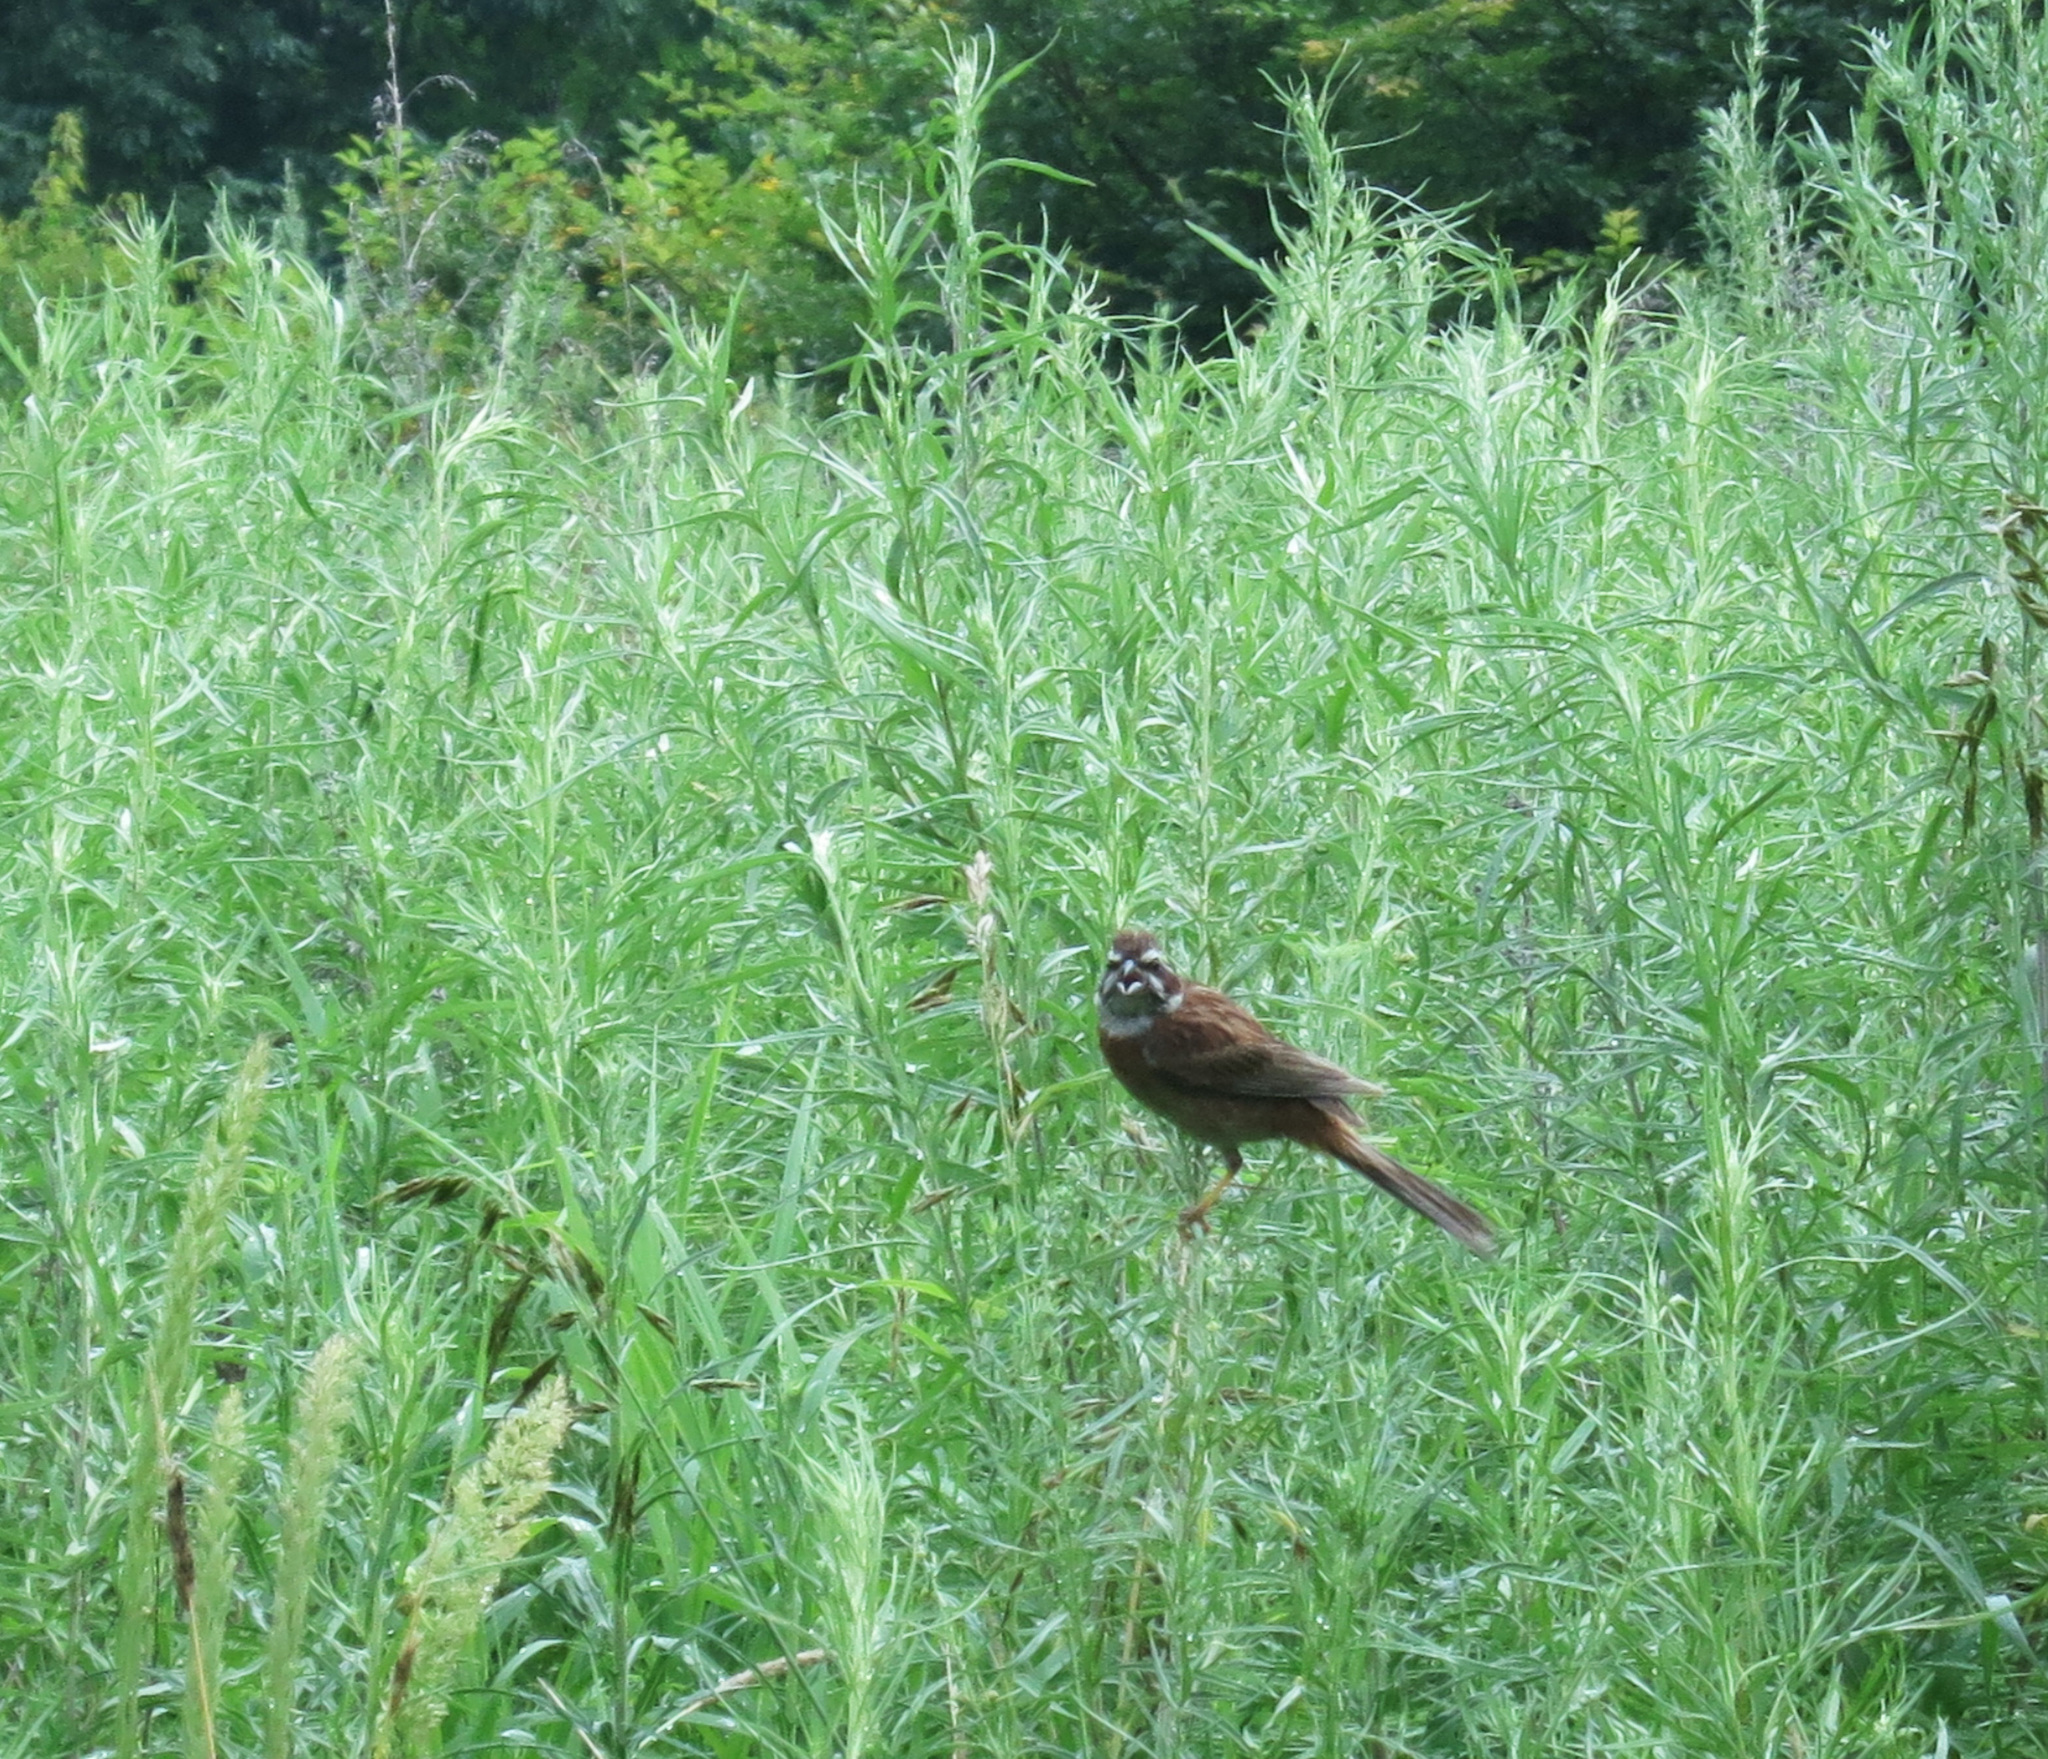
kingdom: Animalia
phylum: Chordata
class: Aves
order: Passeriformes
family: Emberizidae
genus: Emberiza
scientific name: Emberiza cioides
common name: Meadow bunting
